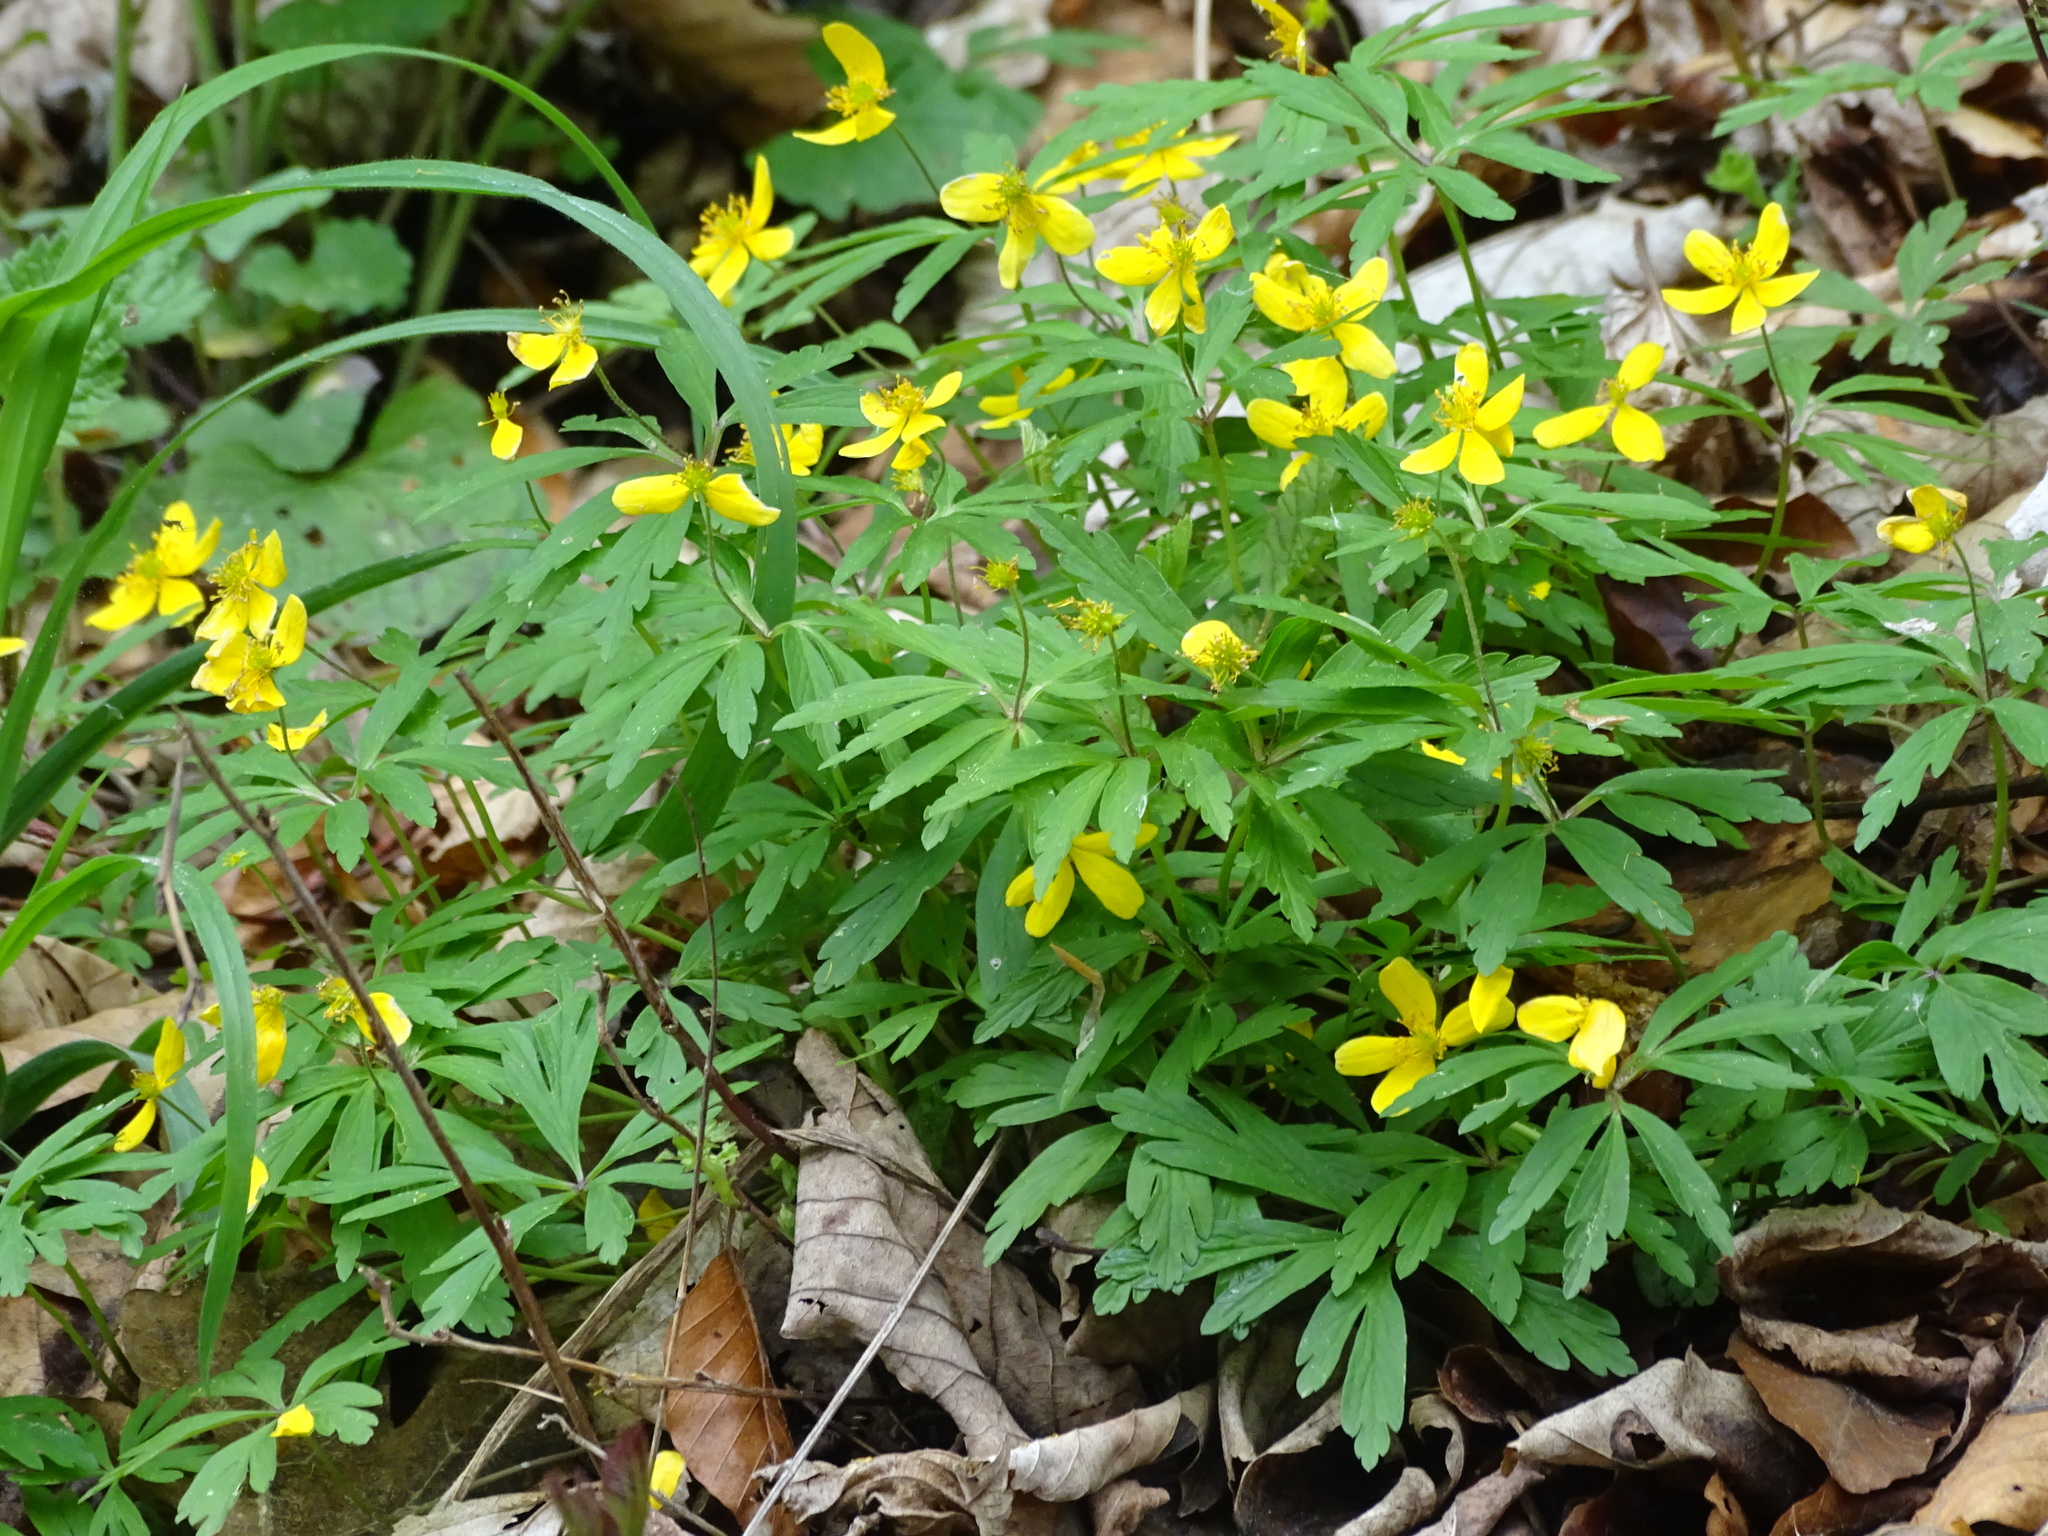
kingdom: Plantae
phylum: Tracheophyta
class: Magnoliopsida
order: Ranunculales
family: Ranunculaceae
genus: Anemone
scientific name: Anemone ranunculoides
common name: Yellow anemone
